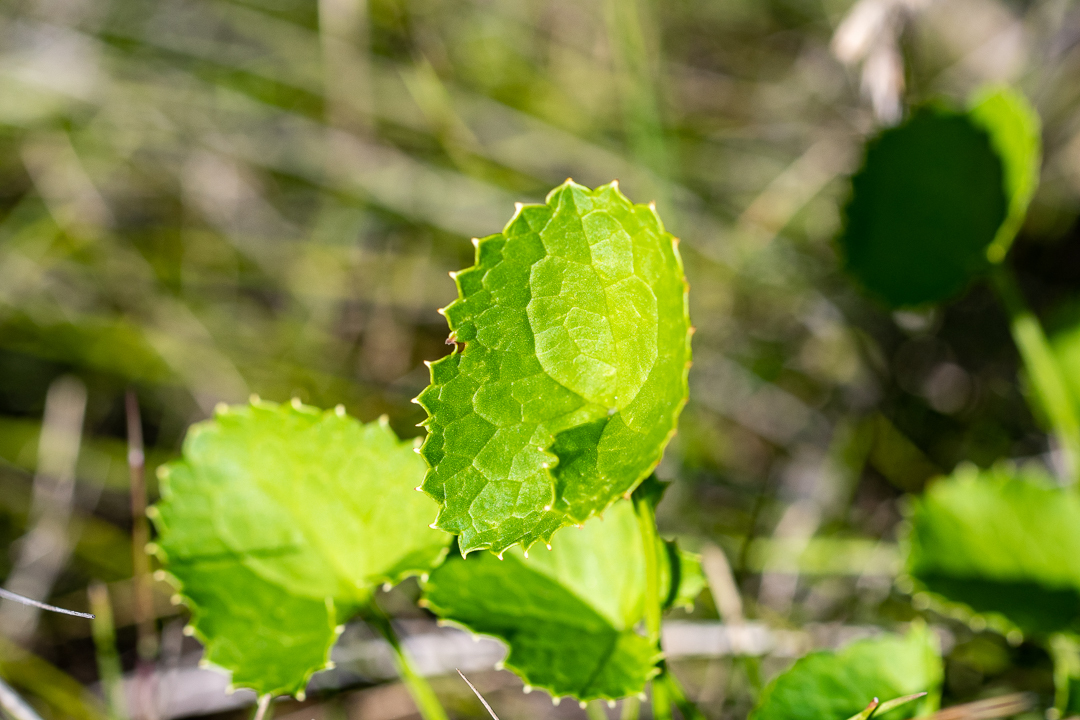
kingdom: Plantae
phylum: Tracheophyta
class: Magnoliopsida
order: Apiales
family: Apiaceae
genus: Centella
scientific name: Centella asiatica
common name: Spadeleaf
